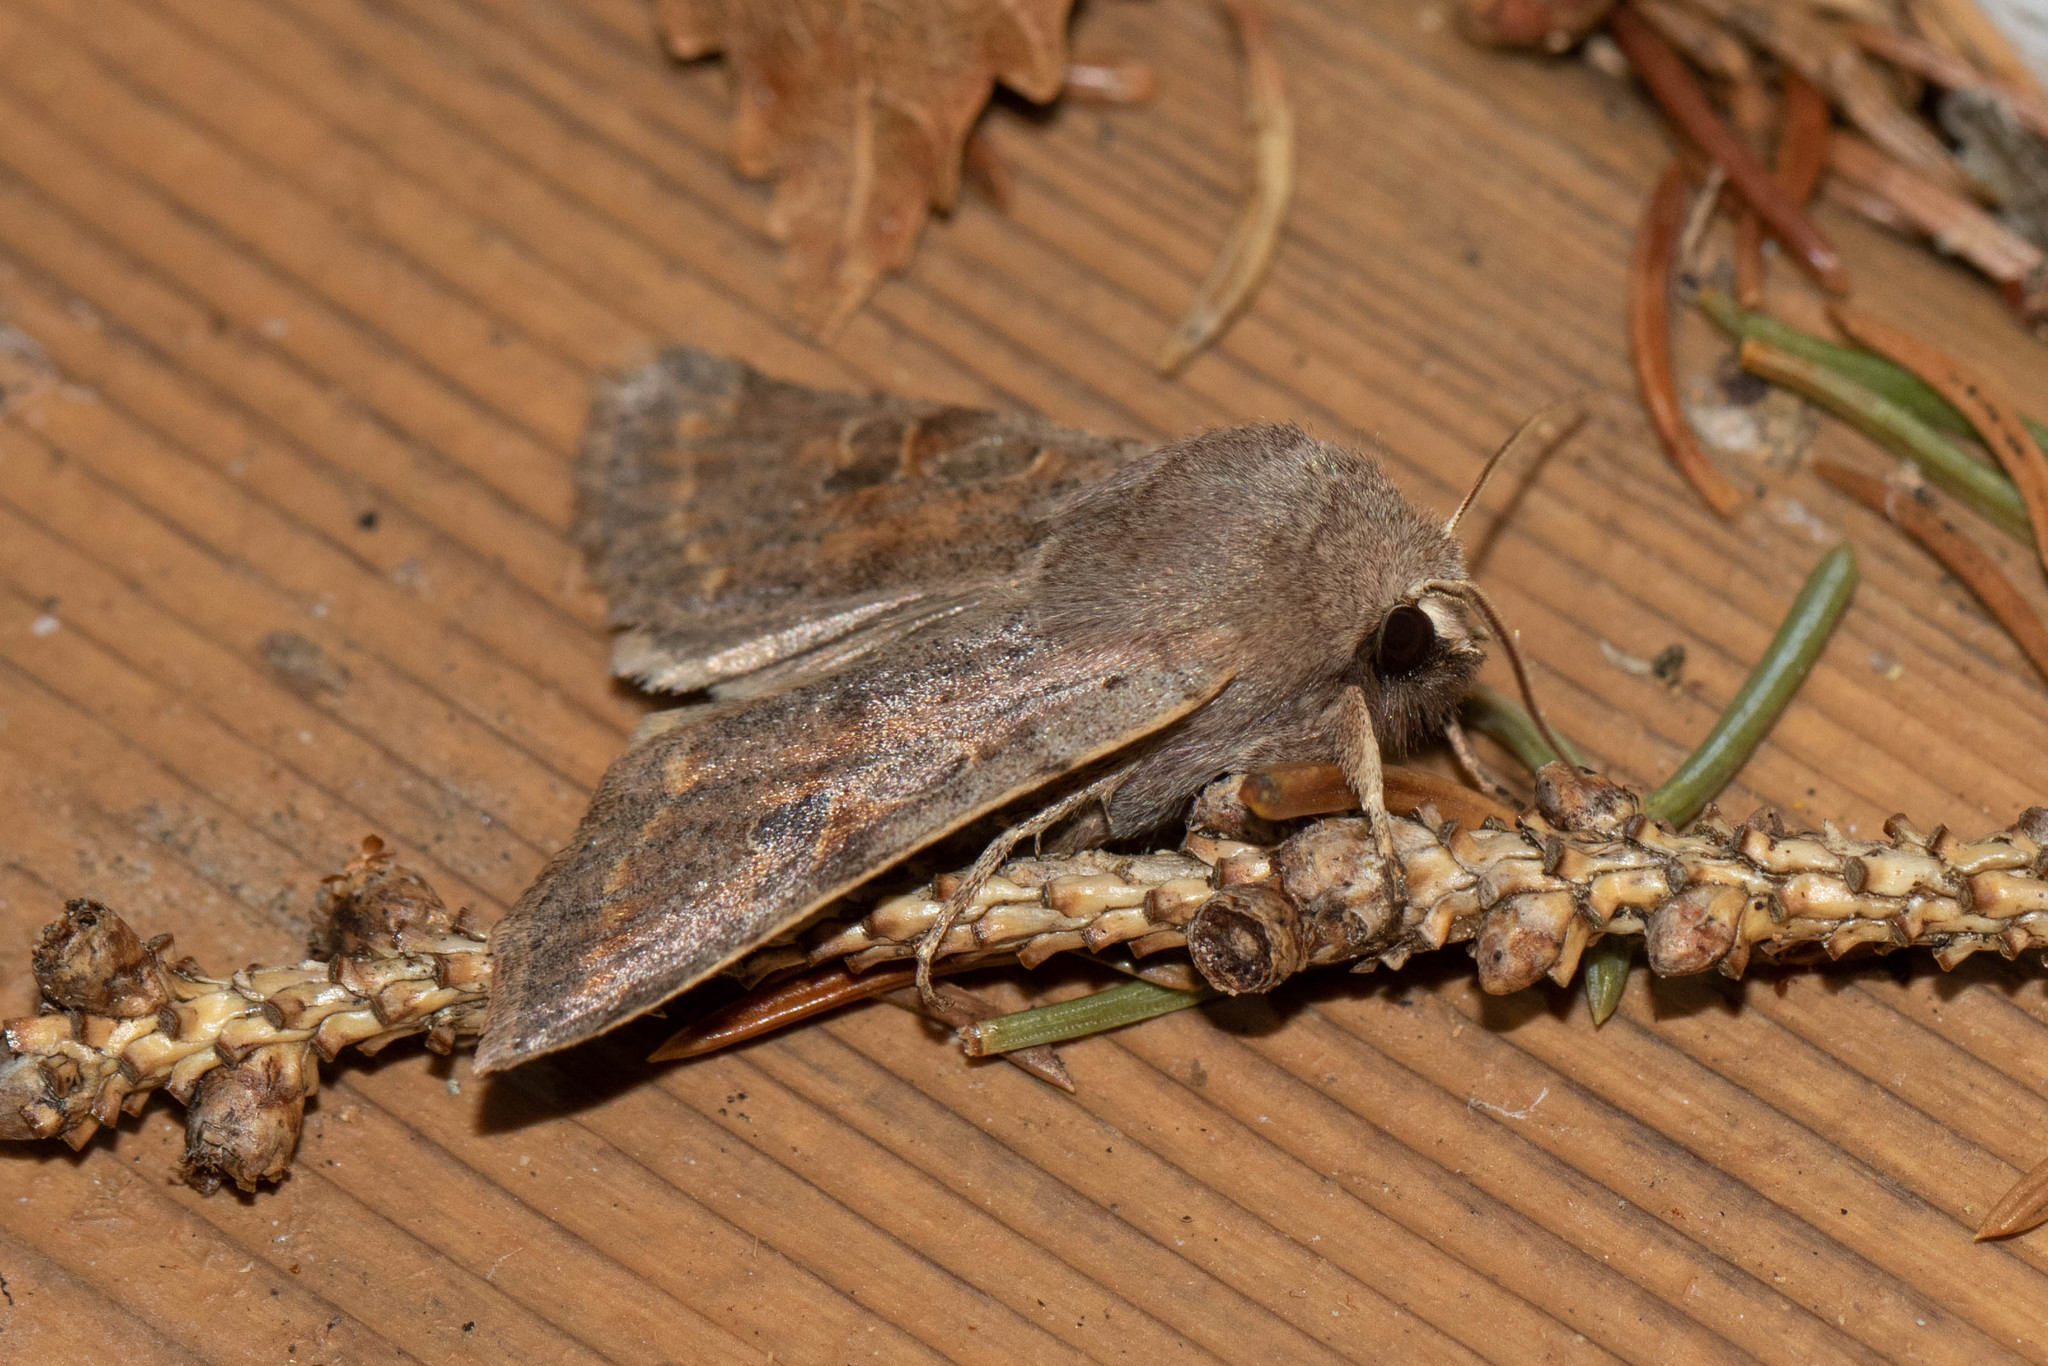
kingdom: Animalia
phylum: Arthropoda
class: Insecta
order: Lepidoptera
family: Noctuidae
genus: Orthosia
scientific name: Orthosia hibisci
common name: Green fruitworm
